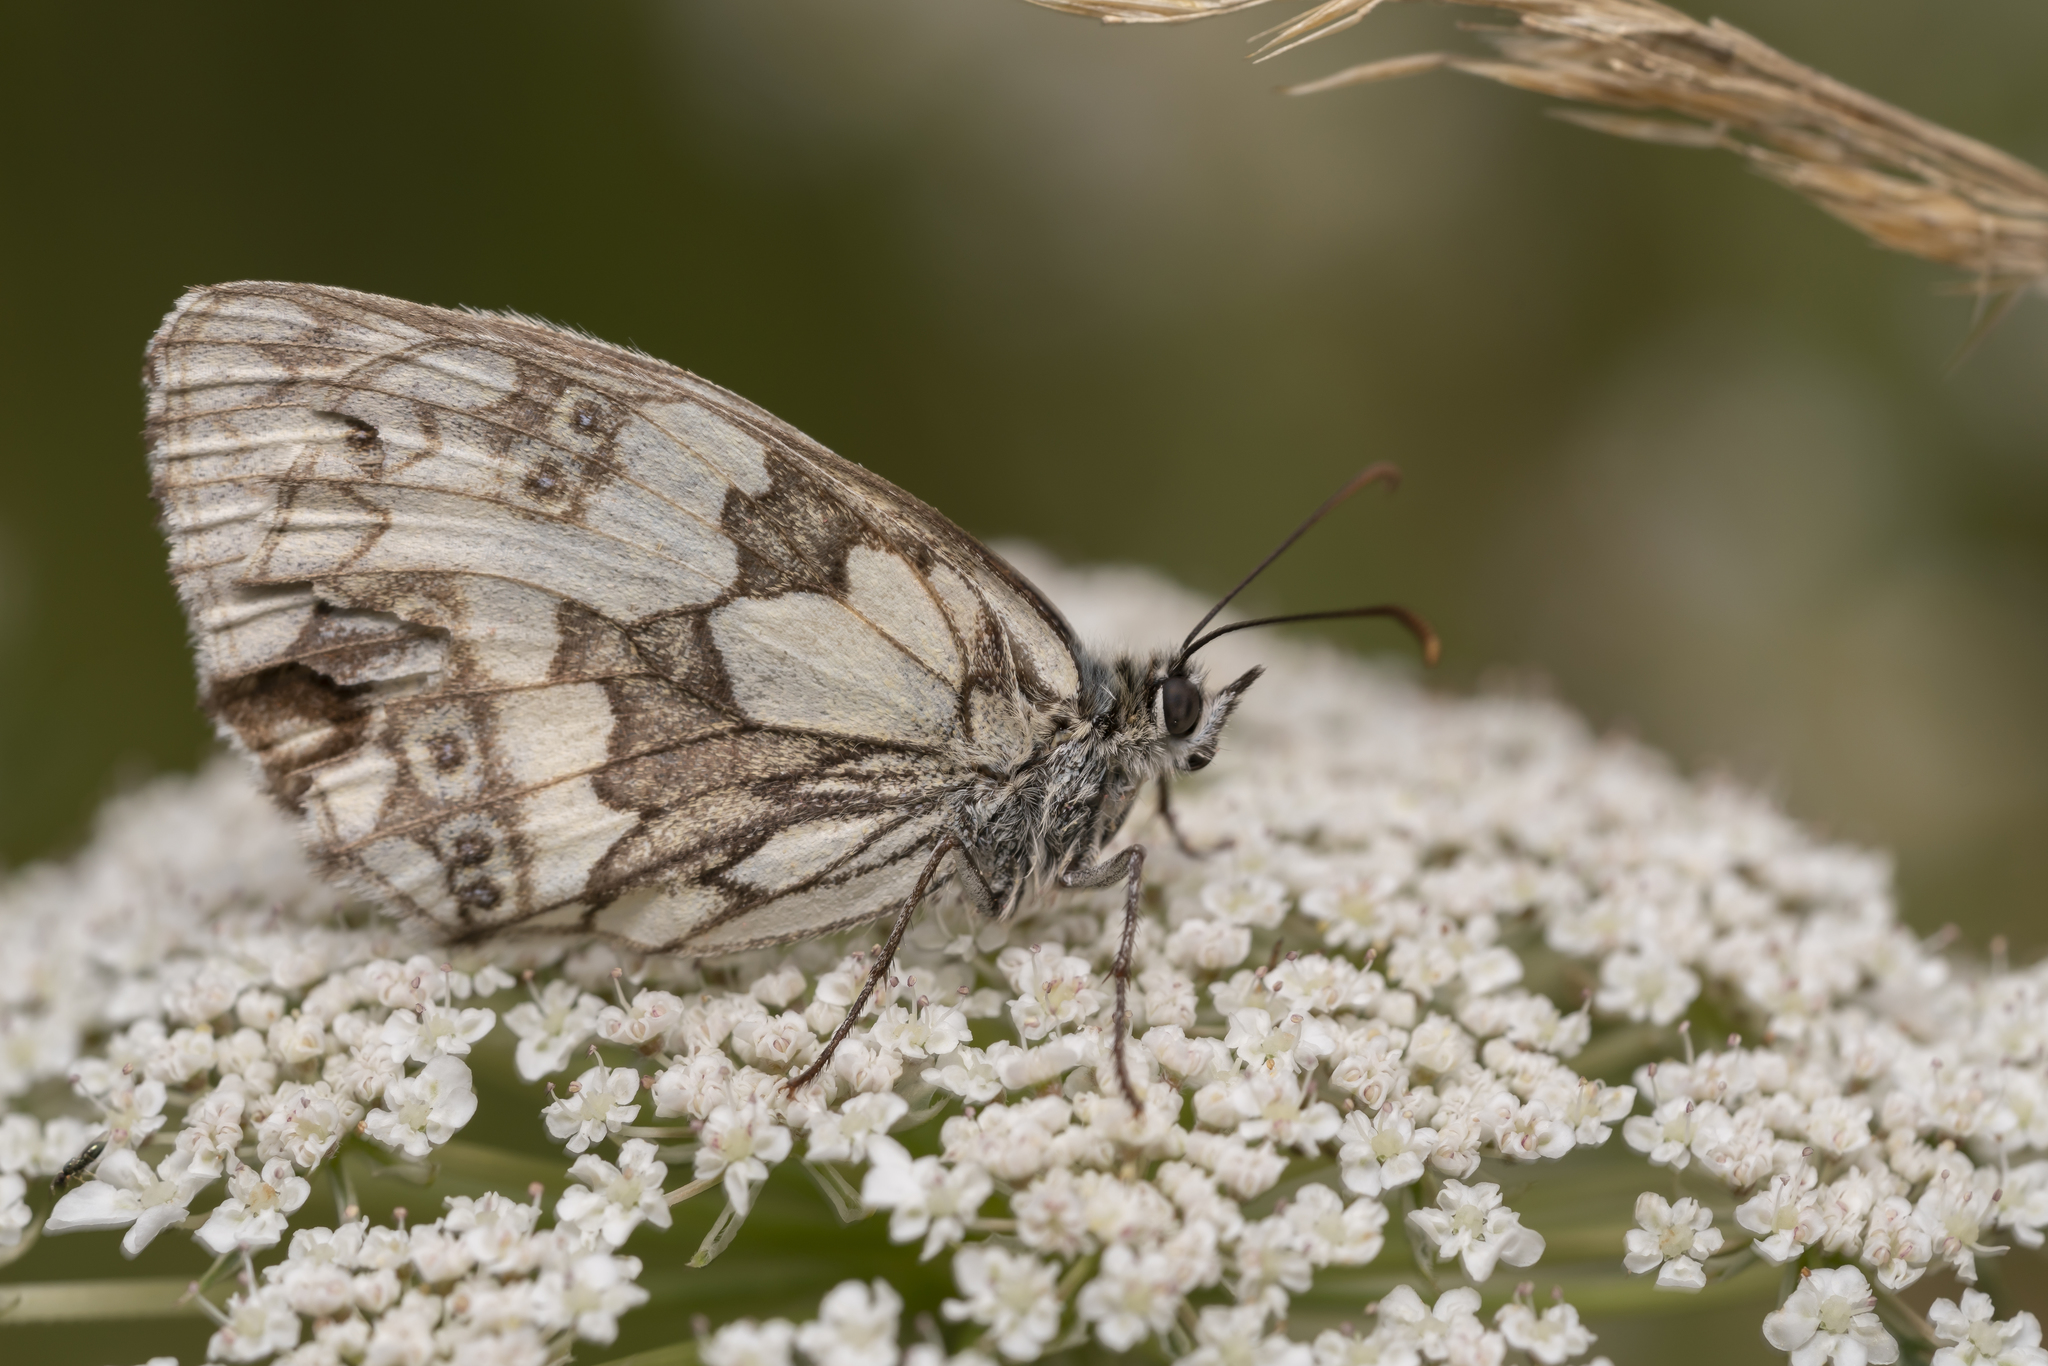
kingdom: Animalia
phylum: Arthropoda
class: Insecta
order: Lepidoptera
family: Nymphalidae
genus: Melanargia
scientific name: Melanargia galathea
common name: Marbled white
